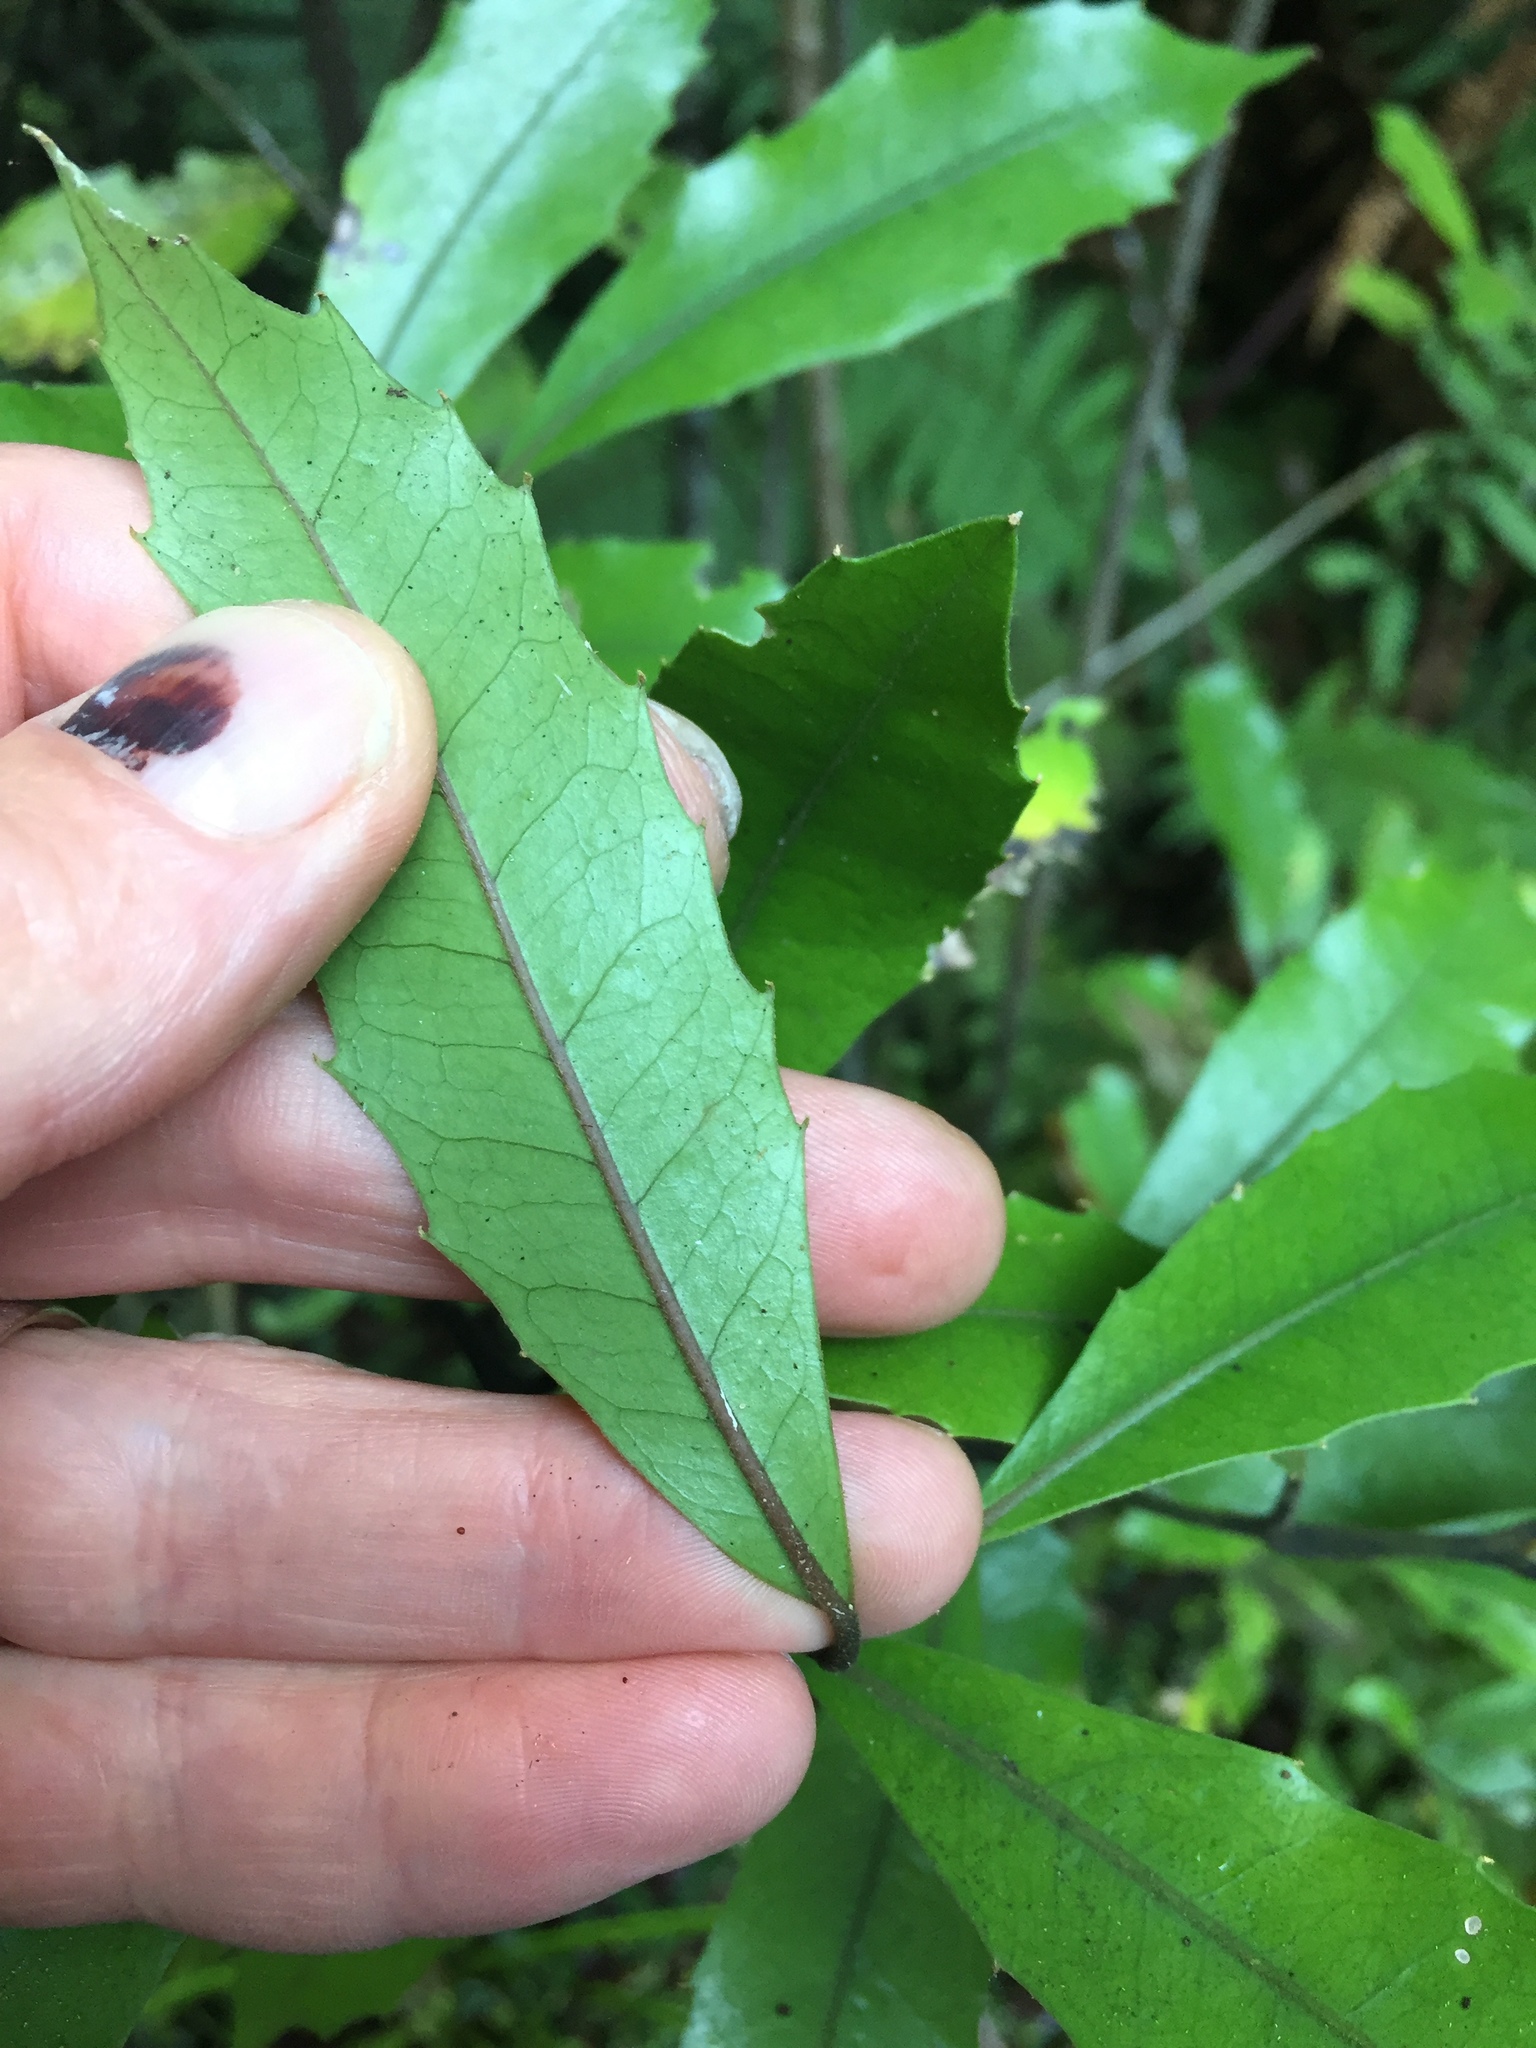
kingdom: Plantae
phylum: Tracheophyta
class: Magnoliopsida
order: Laurales
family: Monimiaceae
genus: Hedycarya
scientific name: Hedycarya arborea
